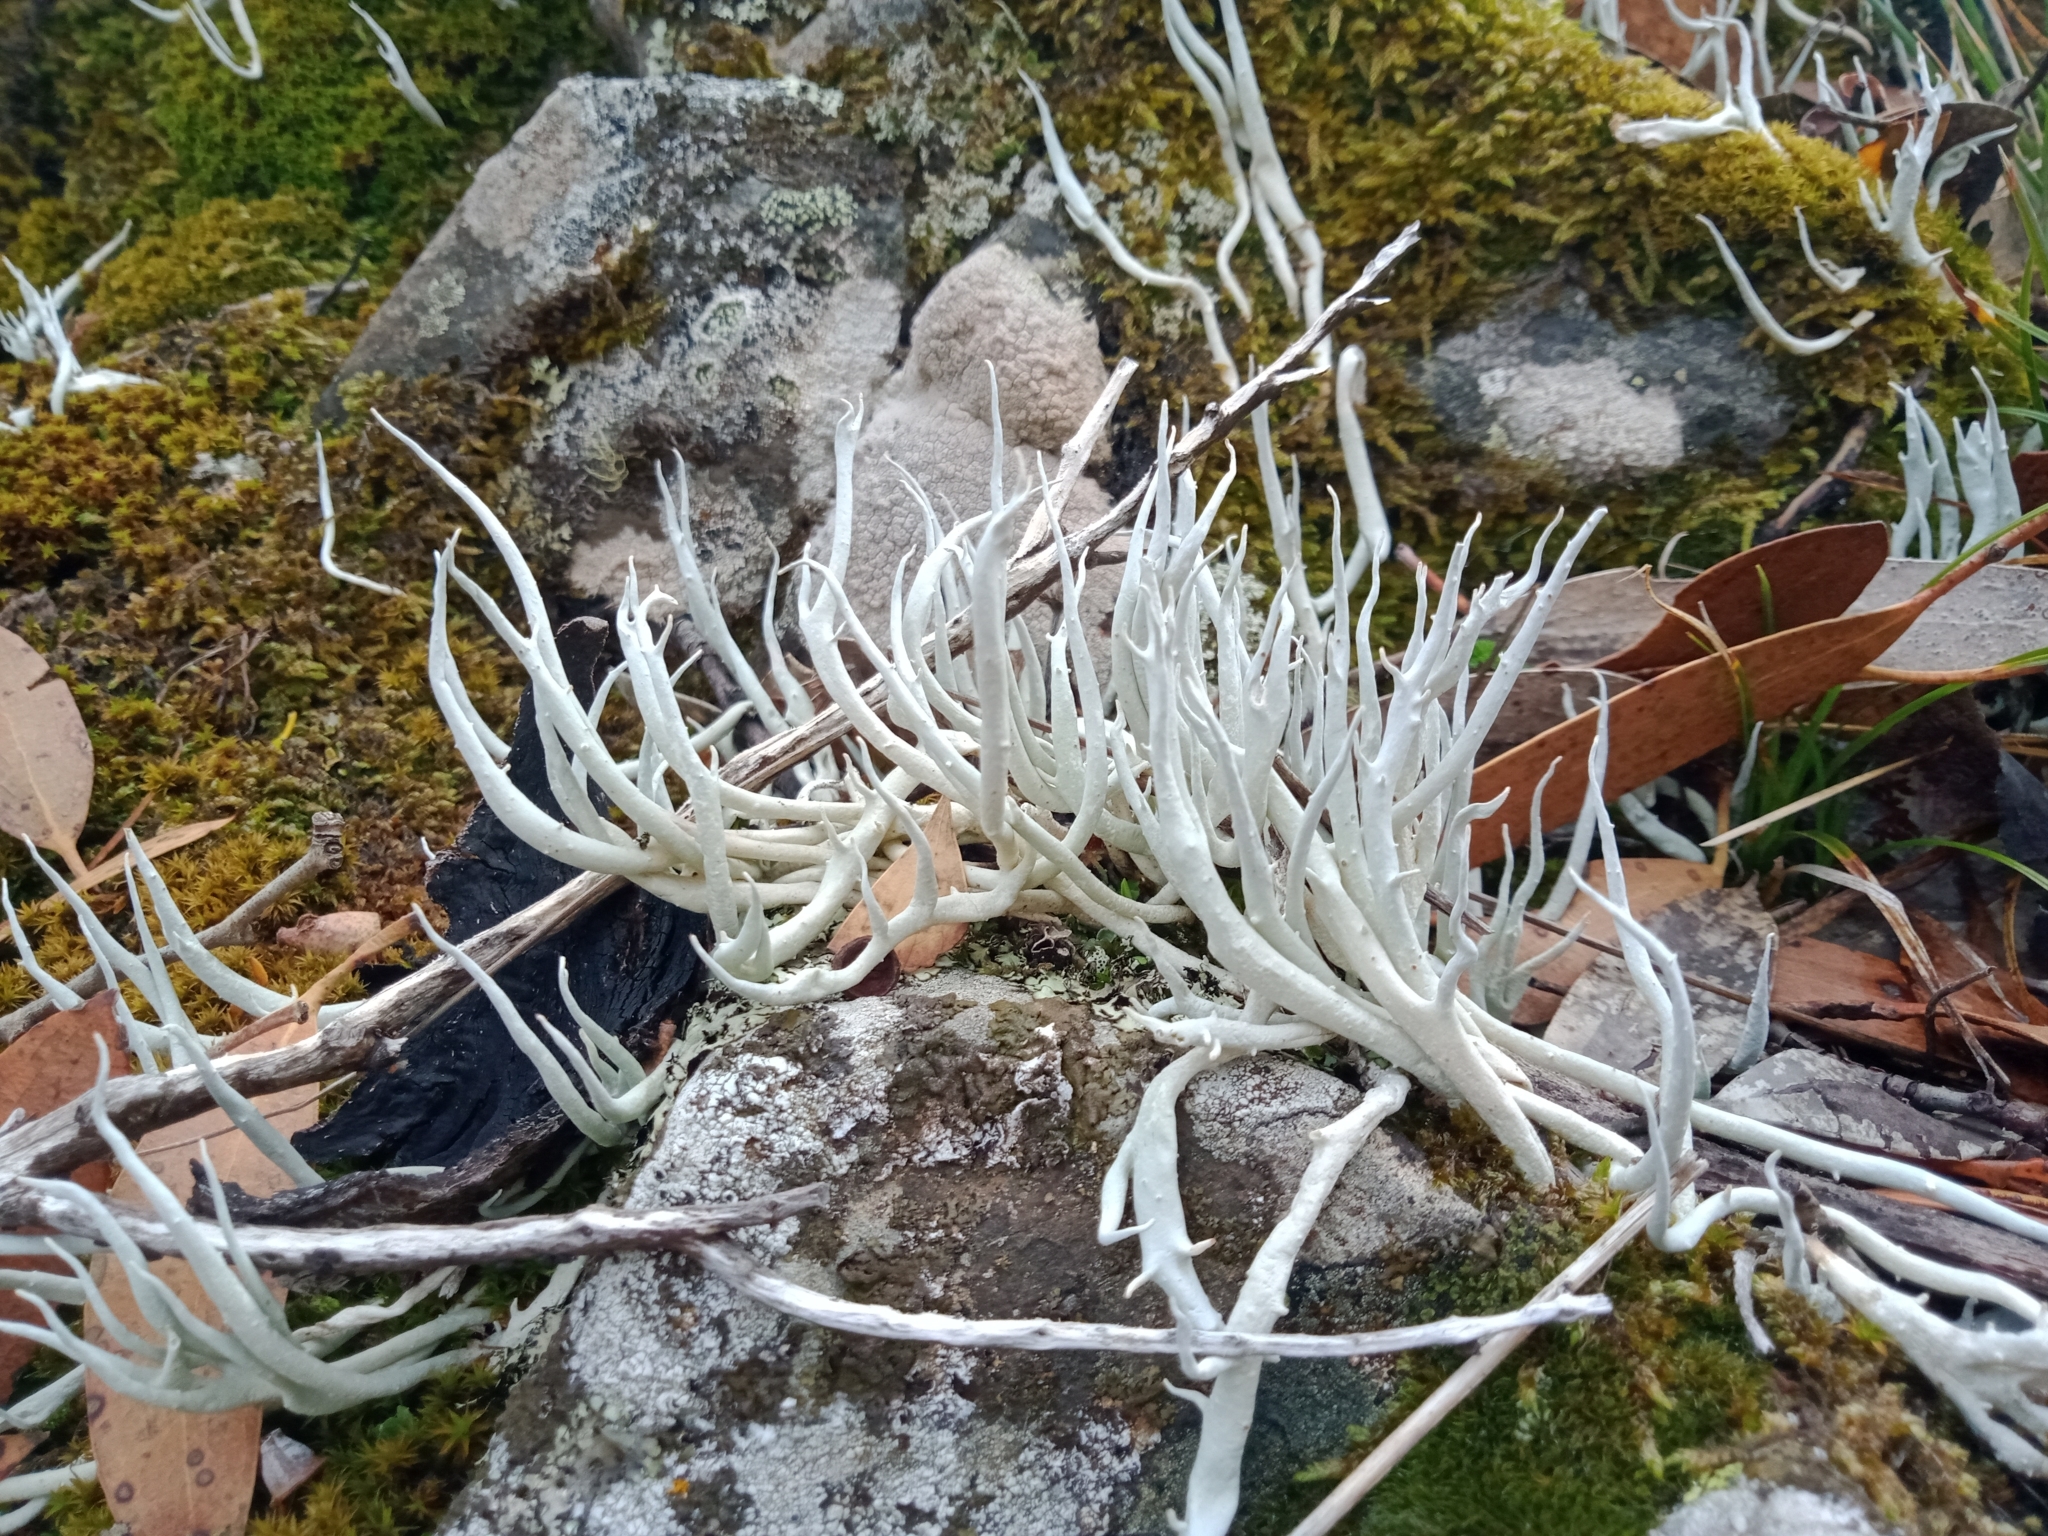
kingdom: Fungi
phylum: Ascomycota
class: Lecanoromycetes
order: Pertusariales
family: Icmadophilaceae
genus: Thamnolia
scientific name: Thamnolia vermicularis
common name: Whiteworm lichen
